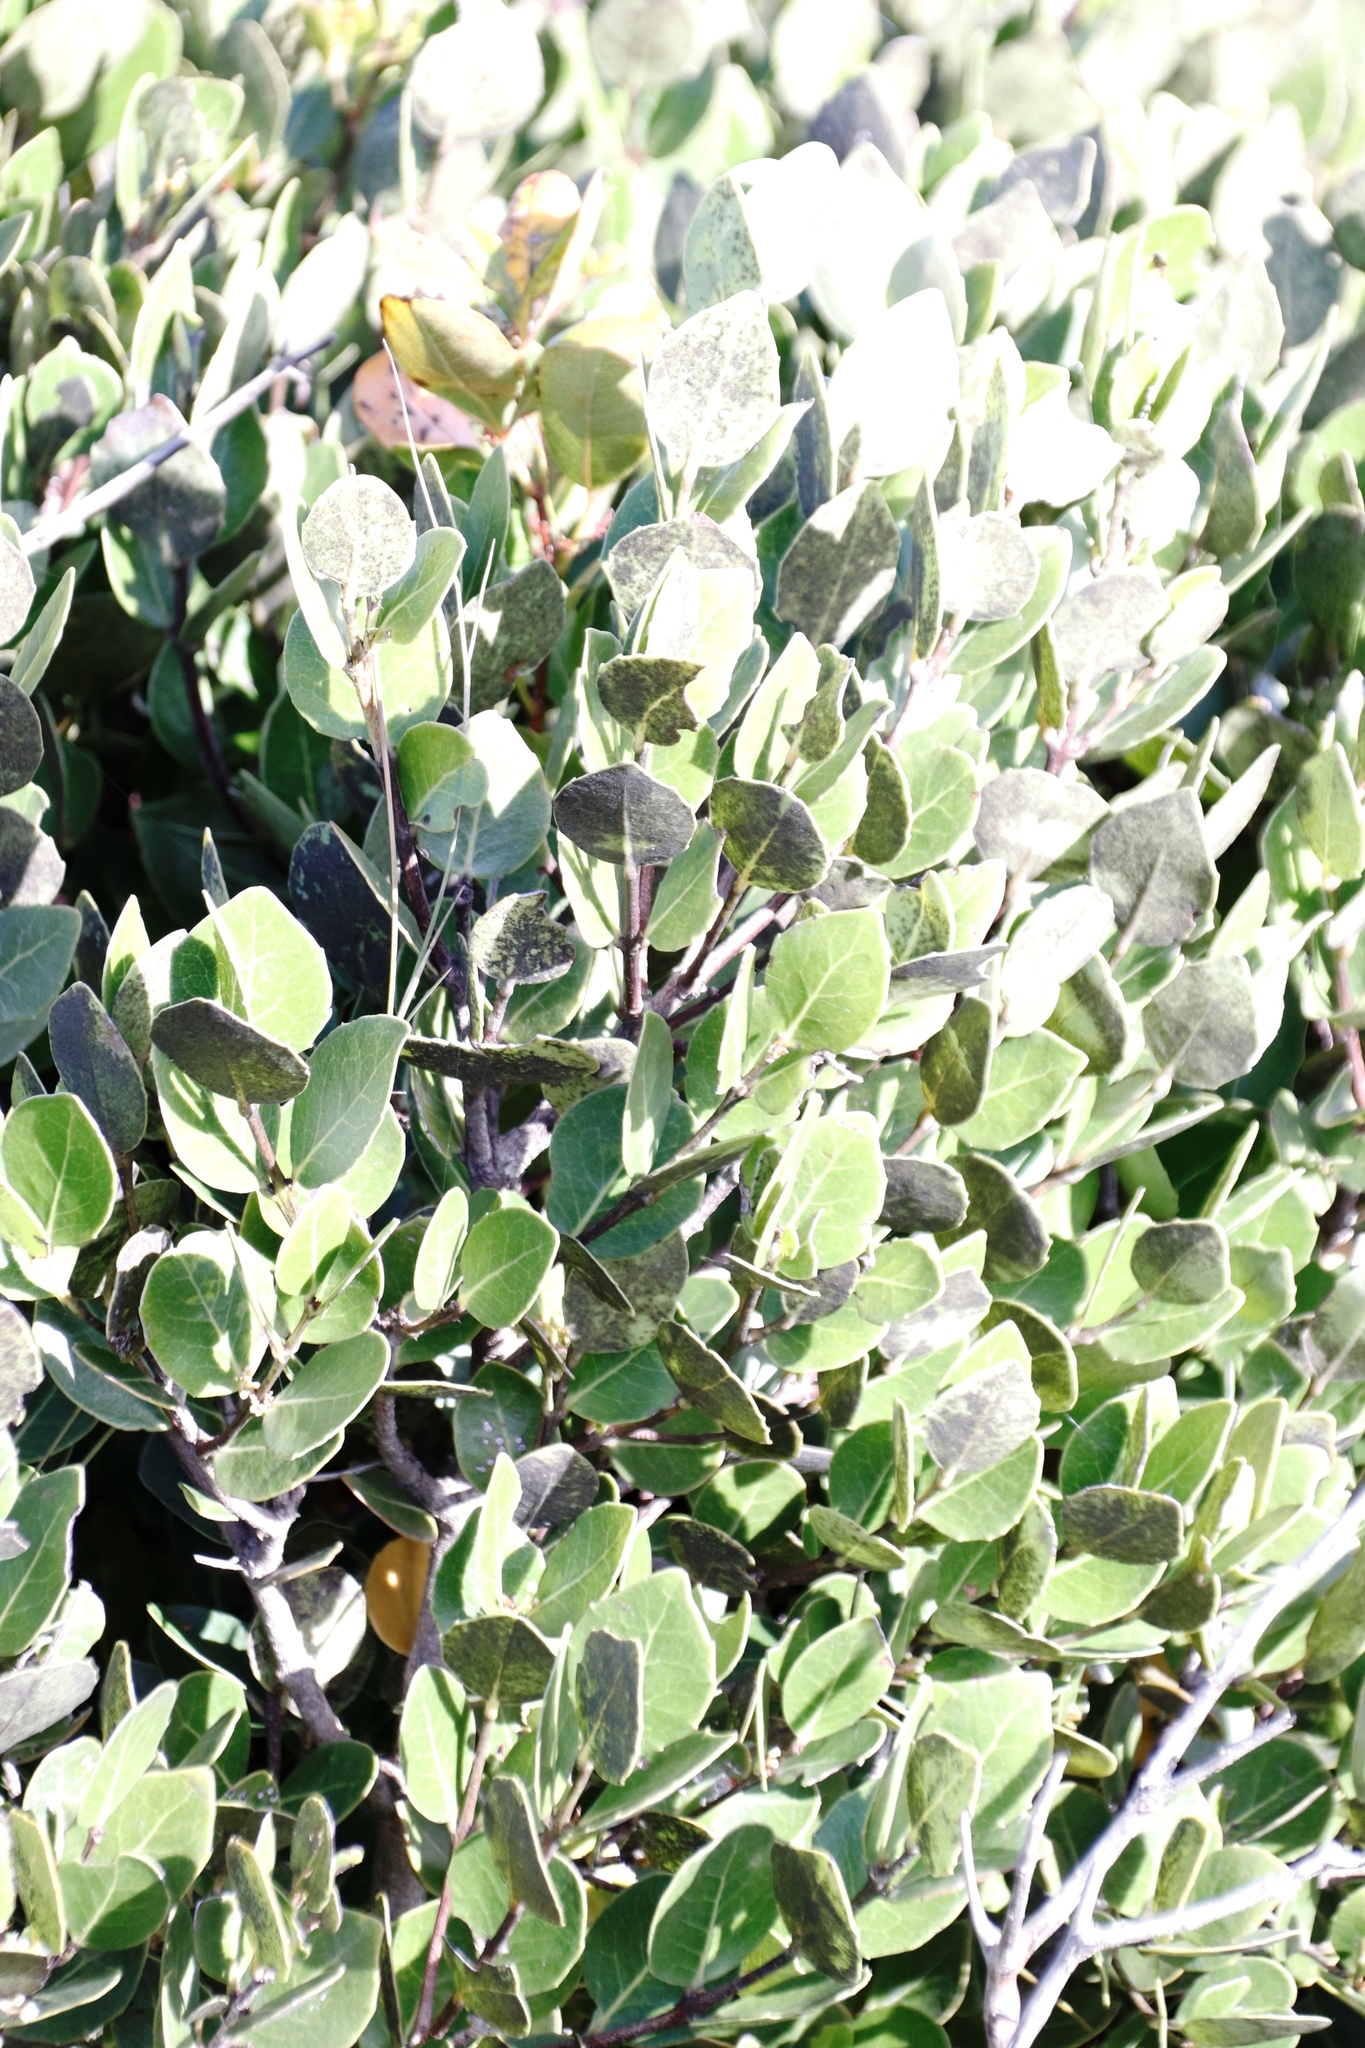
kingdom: Plantae
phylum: Tracheophyta
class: Magnoliopsida
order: Celastrales
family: Celastraceae
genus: Cassine
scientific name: Cassine peragua
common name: Cape saffron
